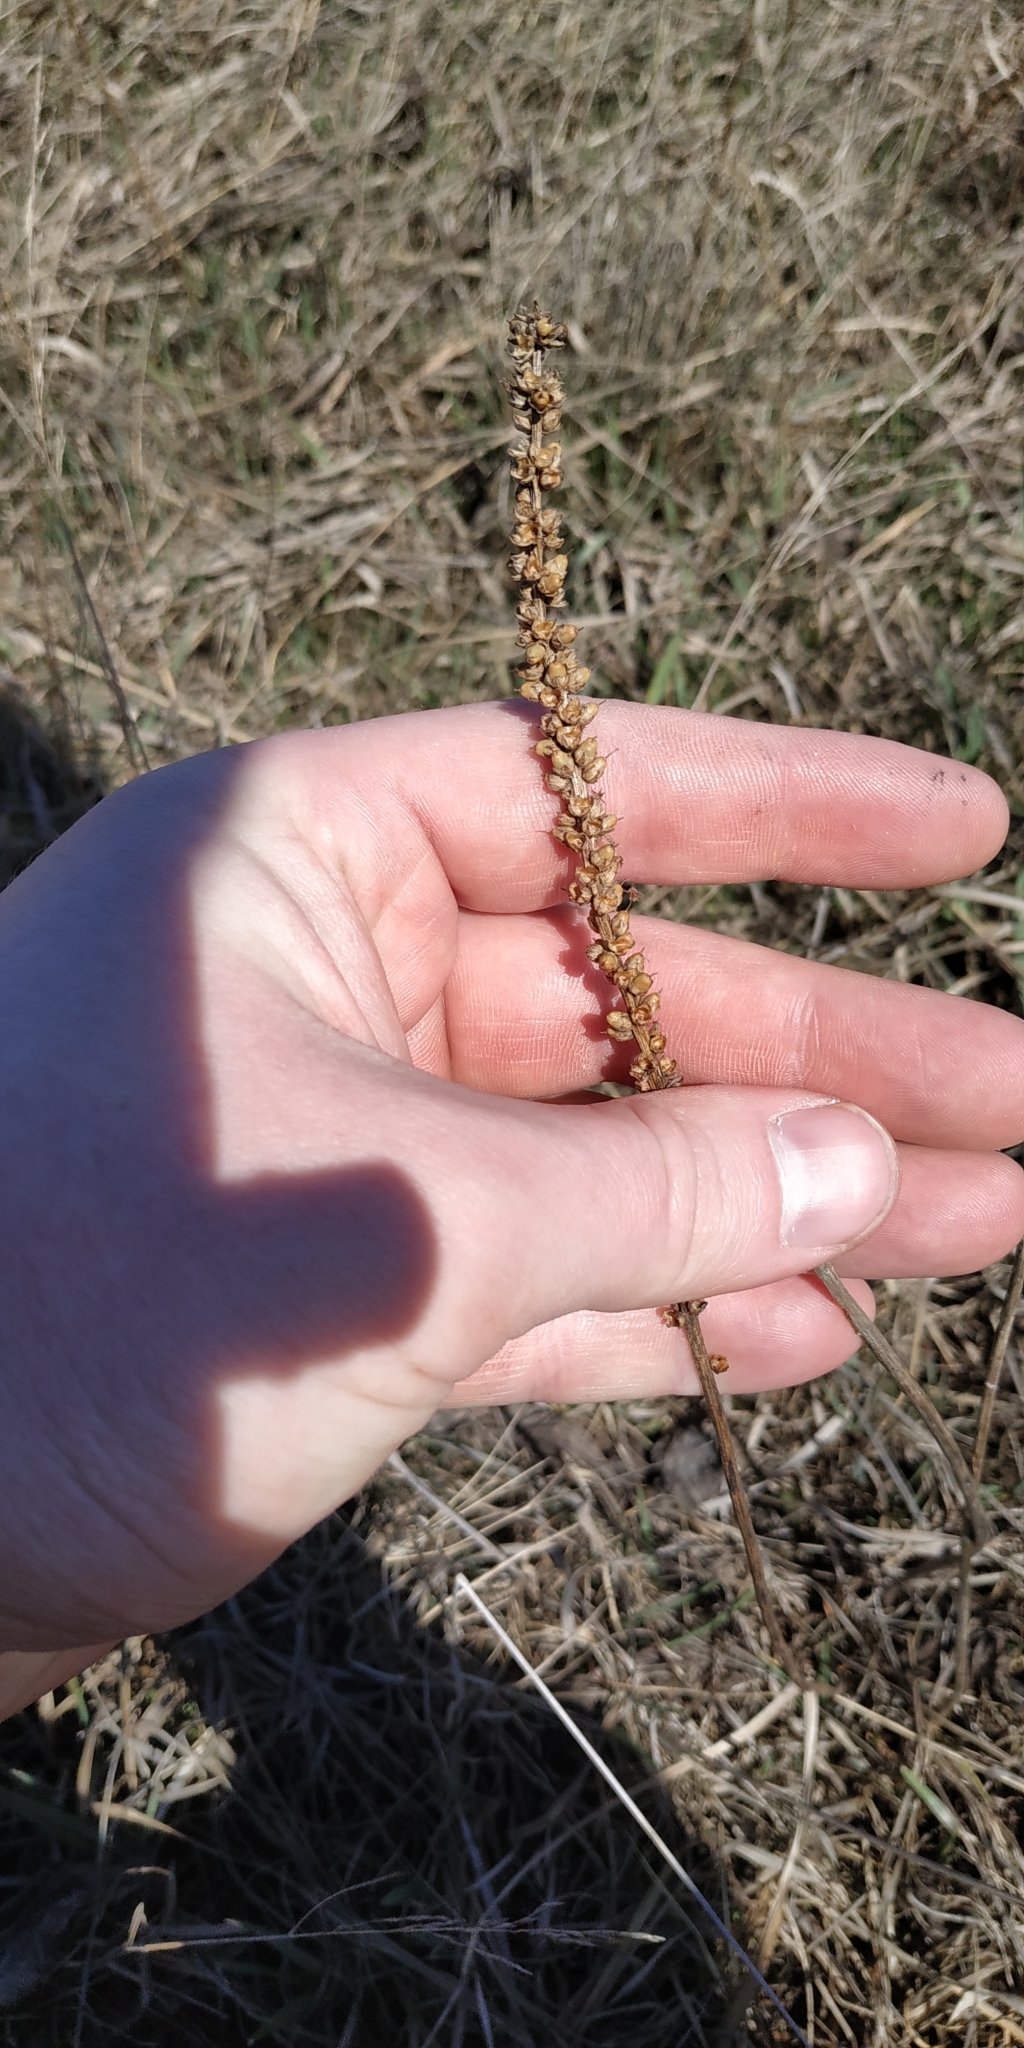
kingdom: Plantae
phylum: Tracheophyta
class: Magnoliopsida
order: Lamiales
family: Plantaginaceae
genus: Plantago
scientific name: Plantago cornuti
